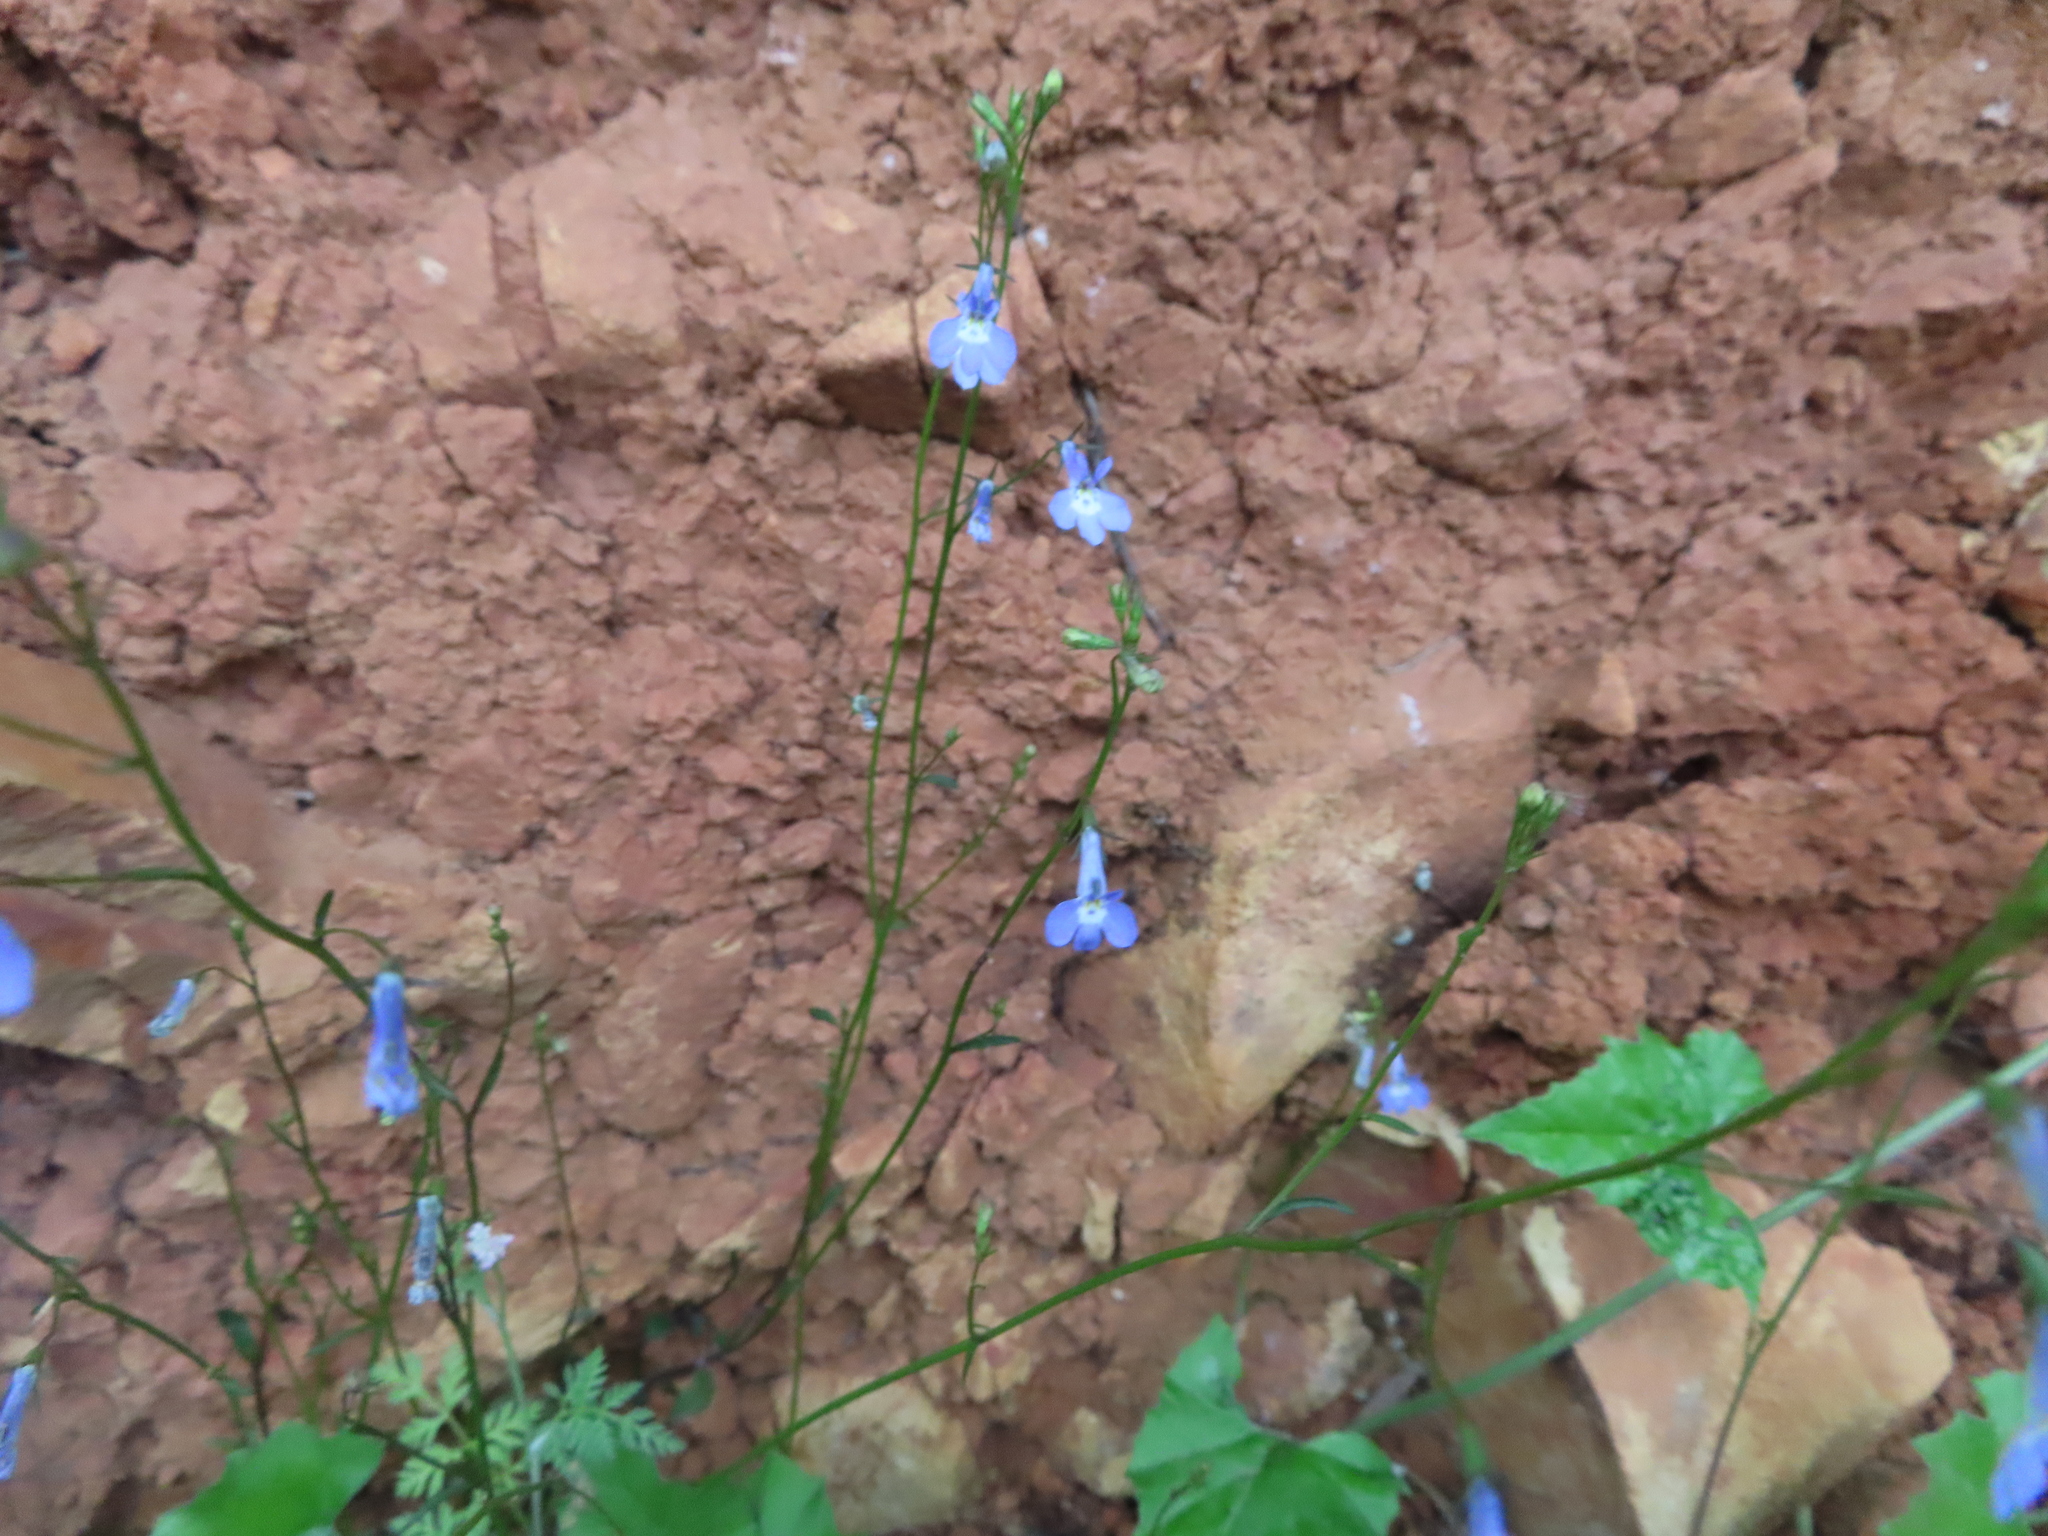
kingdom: Plantae
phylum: Tracheophyta
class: Magnoliopsida
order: Asterales
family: Campanulaceae
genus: Lobelia
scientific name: Lobelia erinus
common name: Edging lobelia
